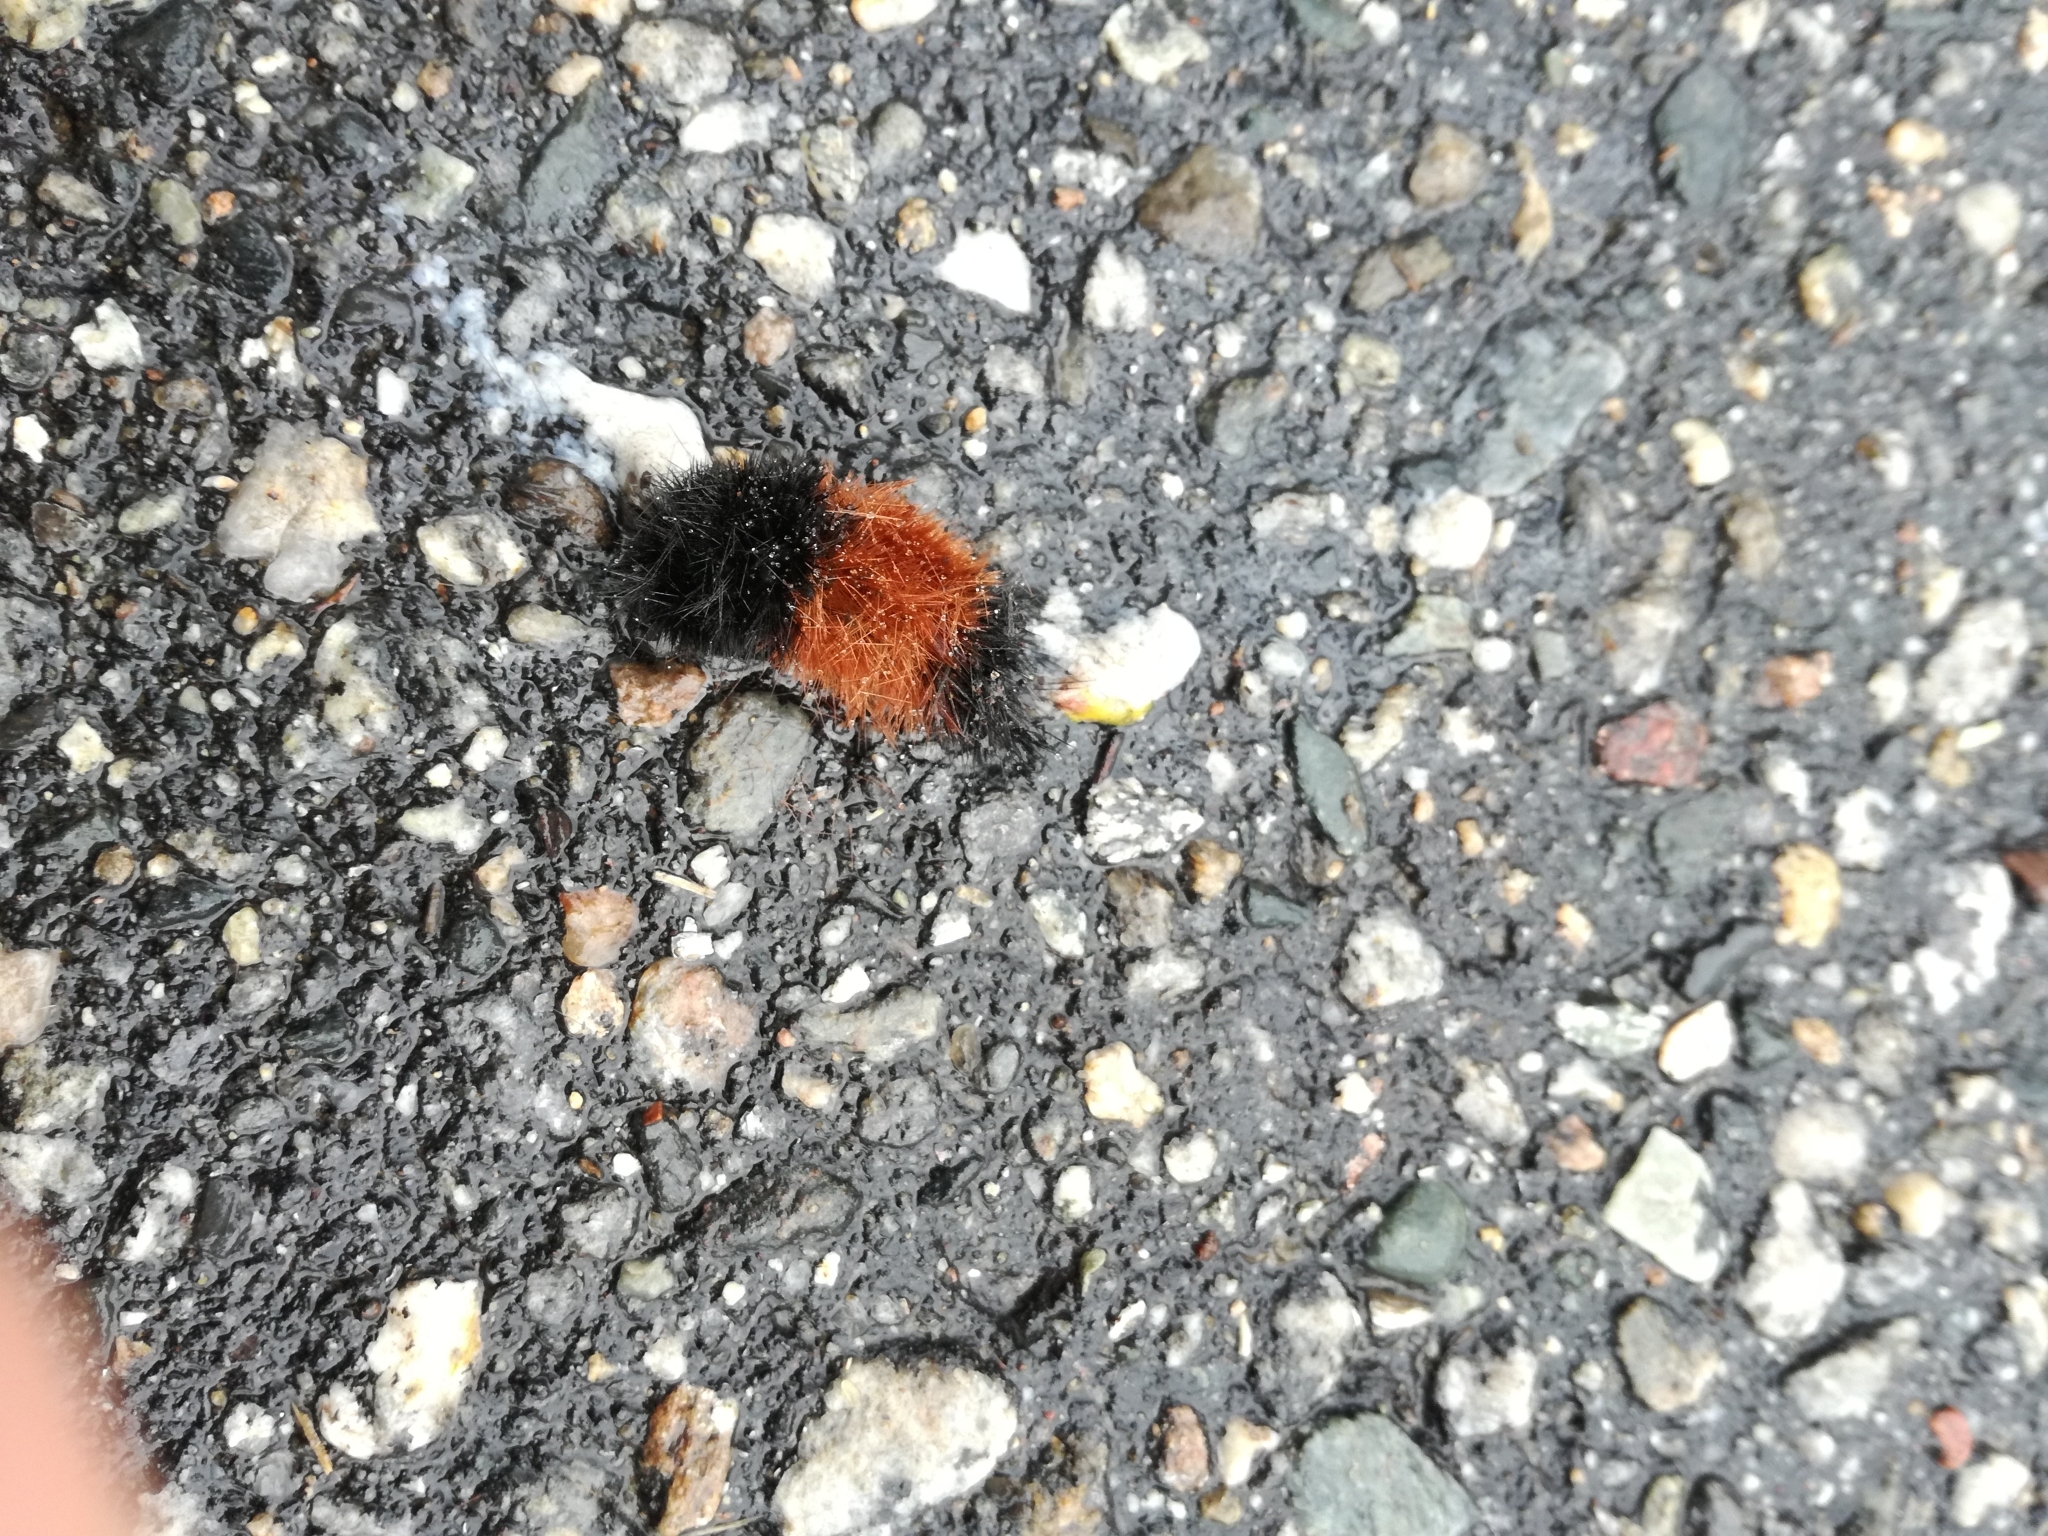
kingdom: Animalia
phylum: Arthropoda
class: Insecta
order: Lepidoptera
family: Erebidae
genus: Pyrrharctia
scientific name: Pyrrharctia isabella
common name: Isabella tiger moth
